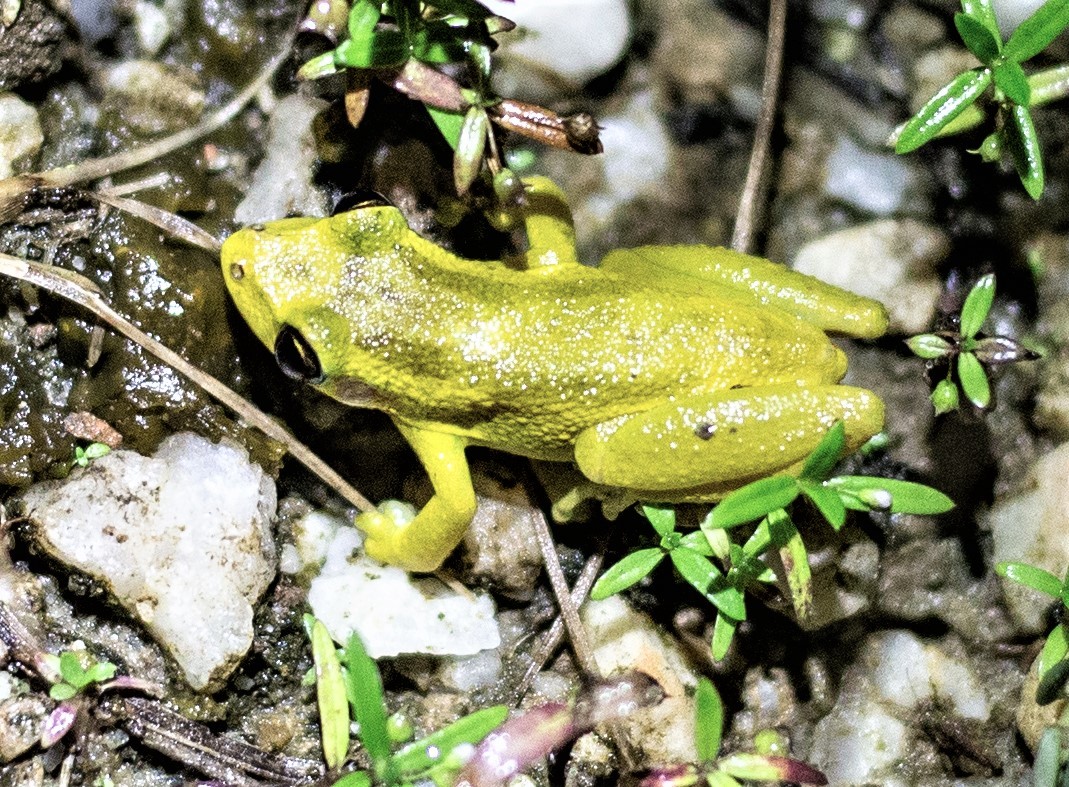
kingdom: Animalia
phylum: Chordata
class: Amphibia
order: Anura
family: Hylidae
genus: Scinax
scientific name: Scinax ruber
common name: Red snouted treefrog
